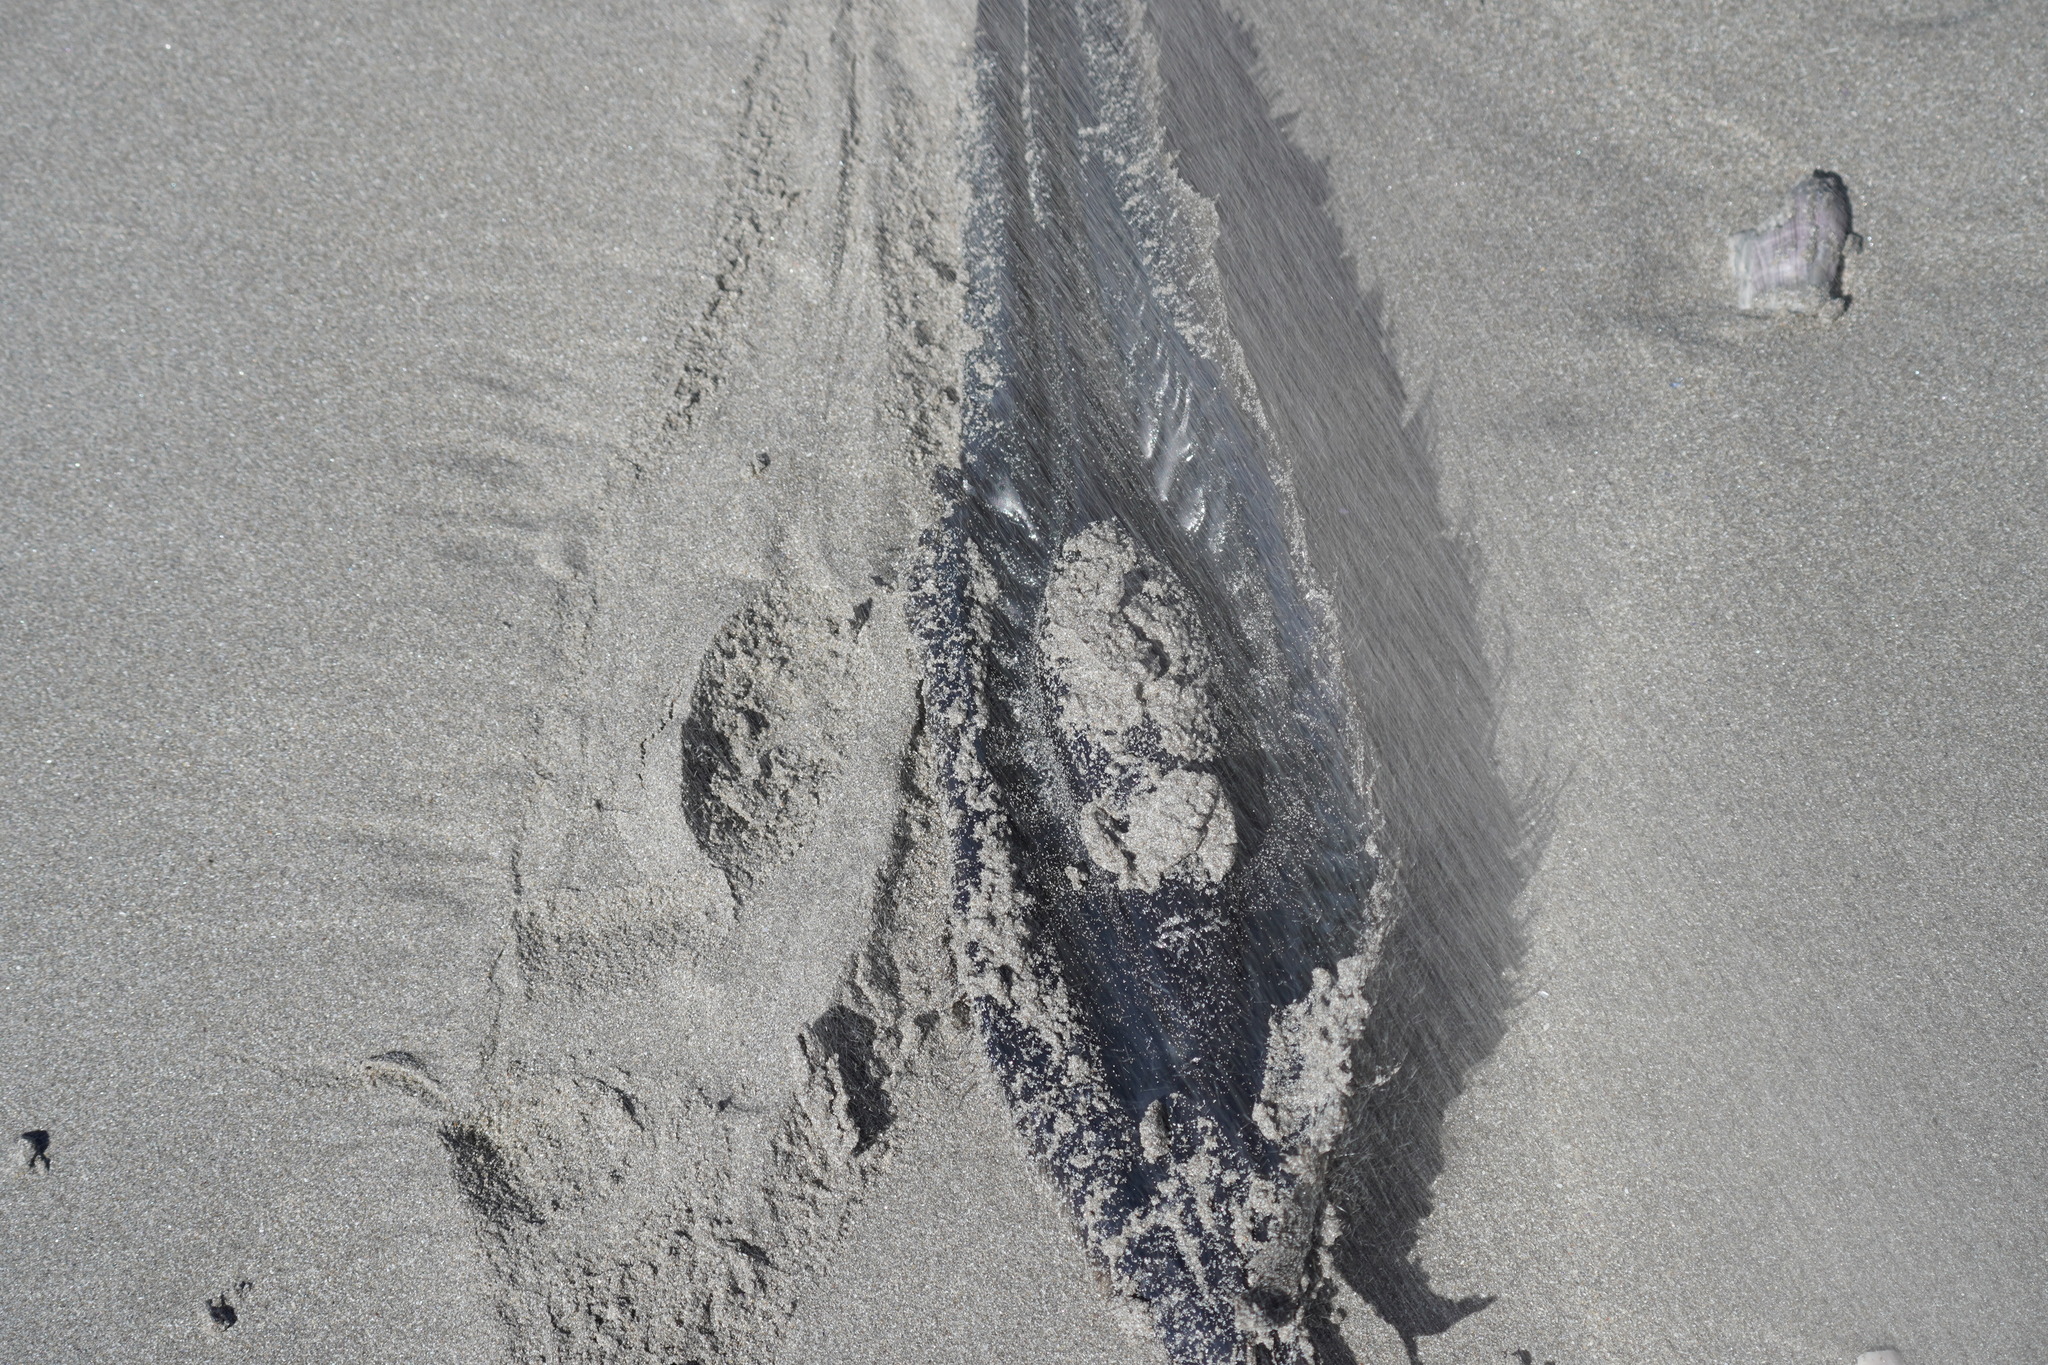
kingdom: Animalia
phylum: Chordata
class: Holocephali
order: Chimaeriformes
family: Callorhinchidae
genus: Callorhinchus
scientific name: Callorhinchus capensis
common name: Cape elephantfish
